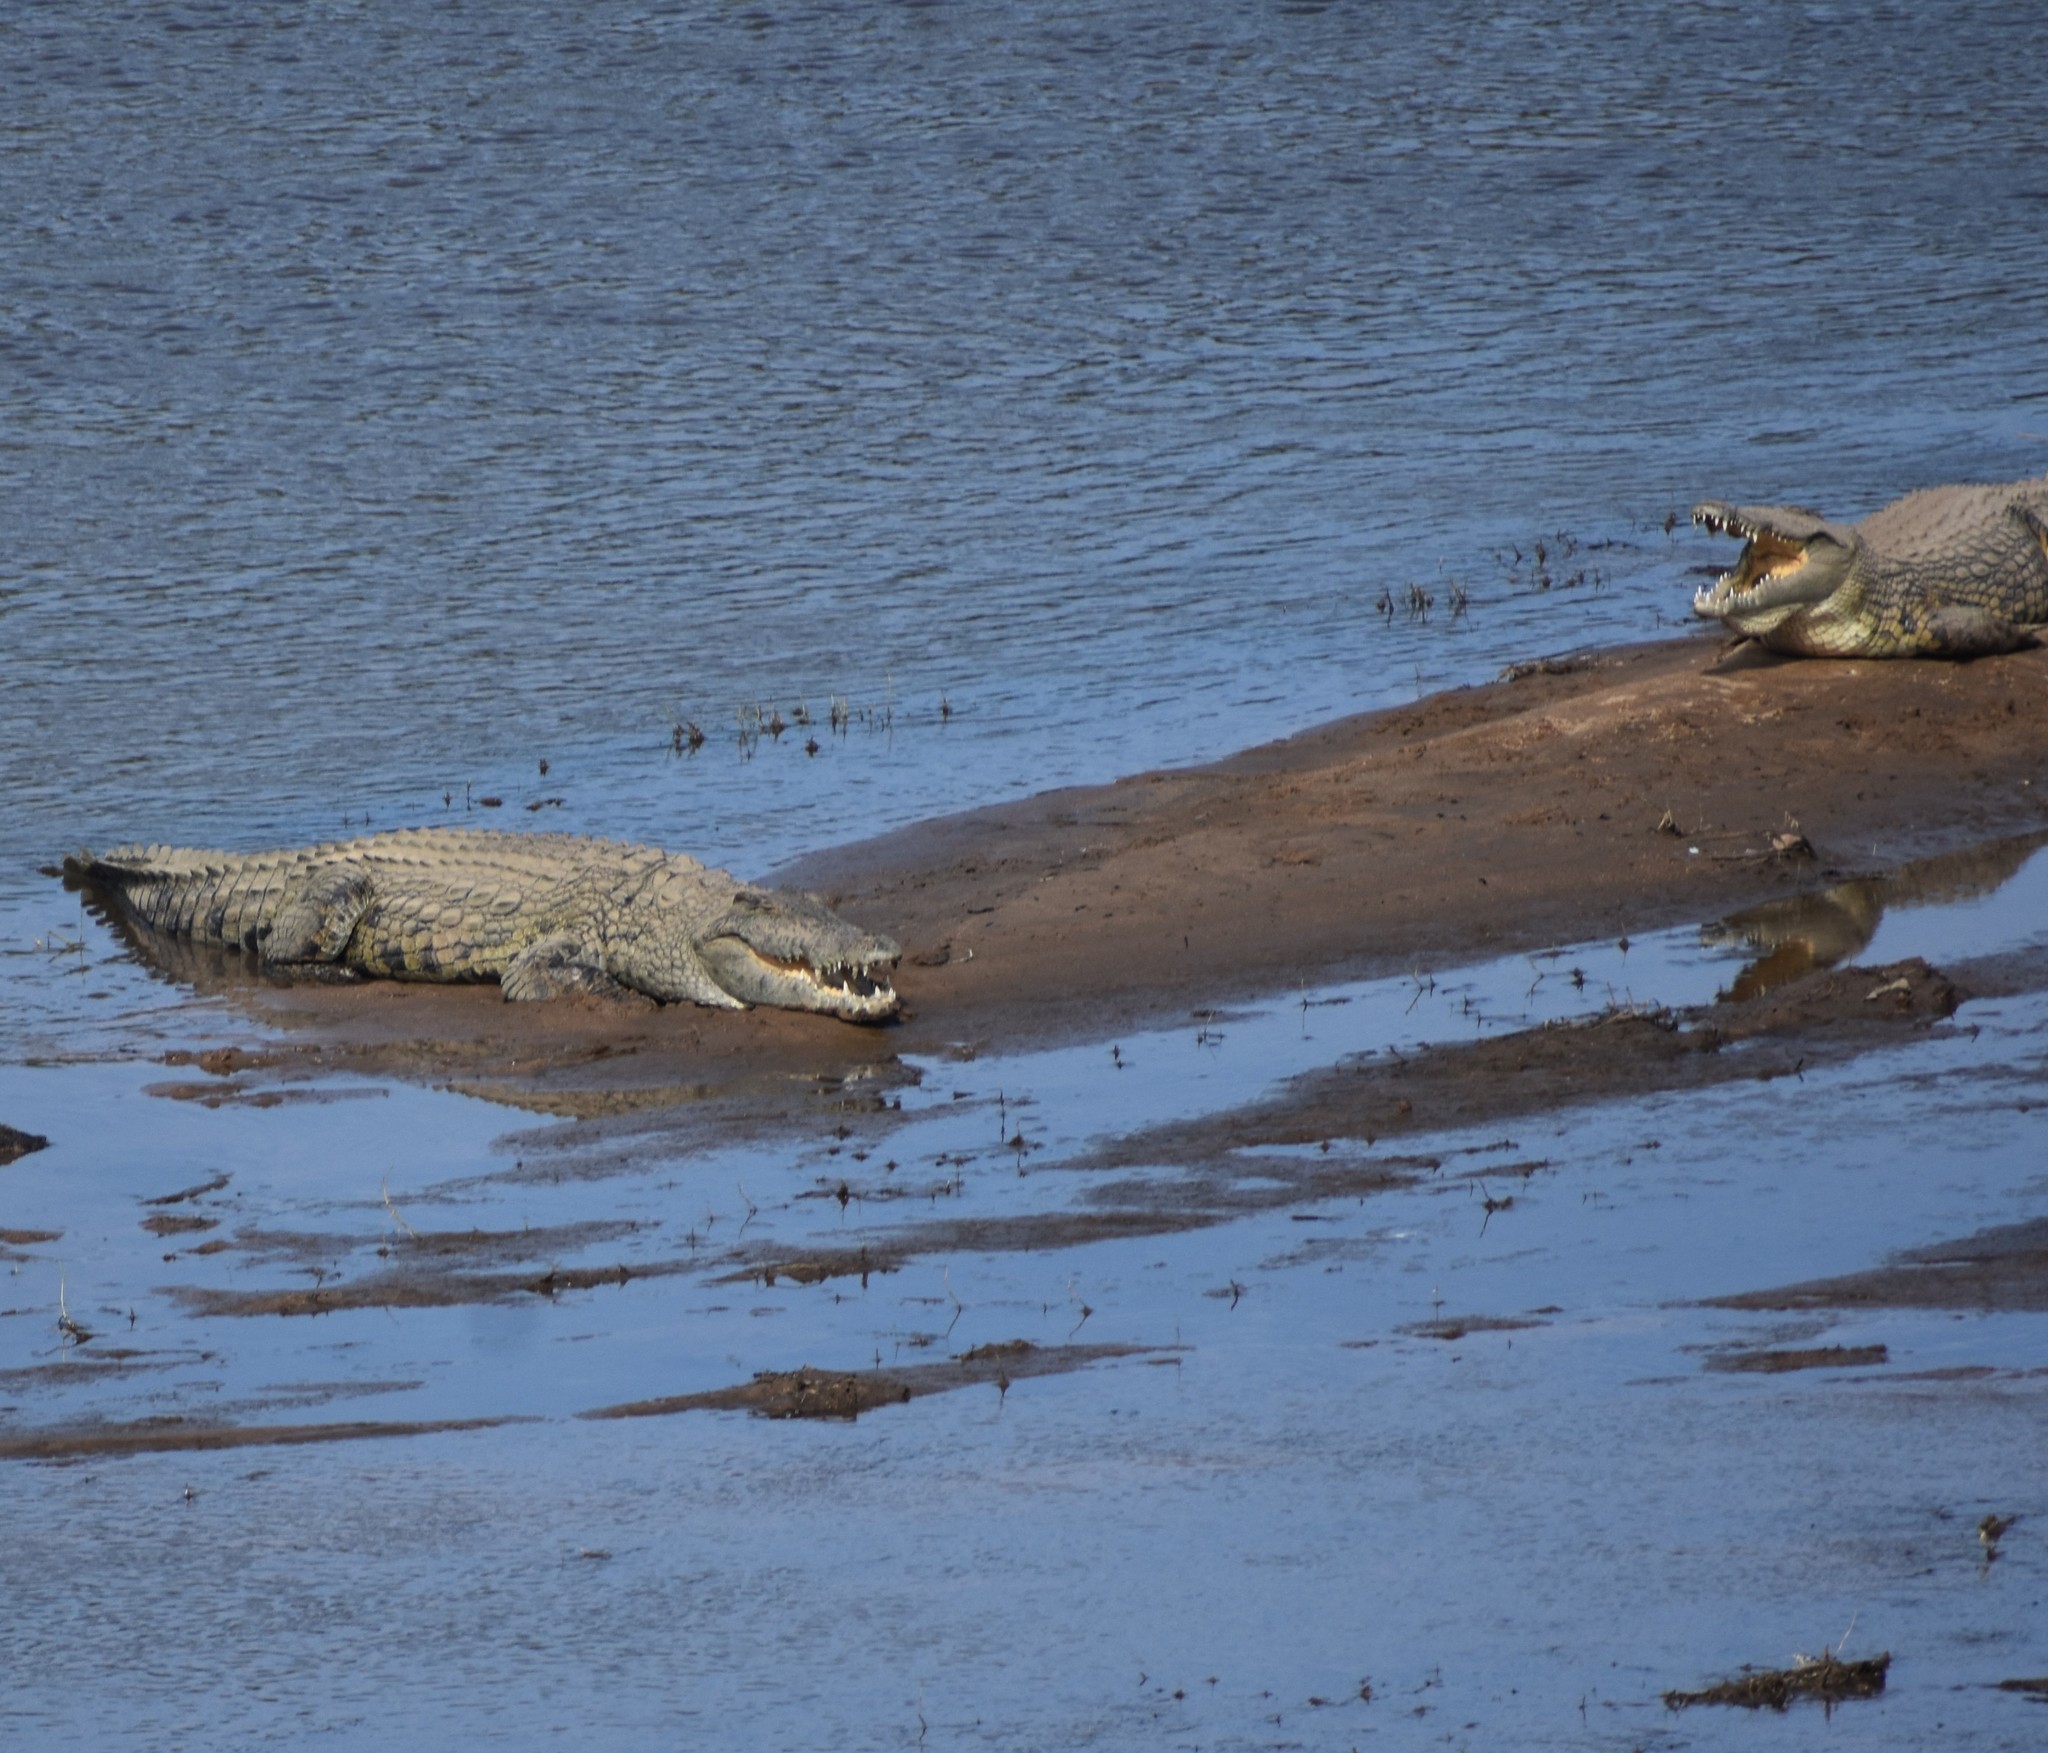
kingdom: Animalia
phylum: Chordata
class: Crocodylia
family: Crocodylidae
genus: Crocodylus
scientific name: Crocodylus niloticus
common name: Nile crocodile
